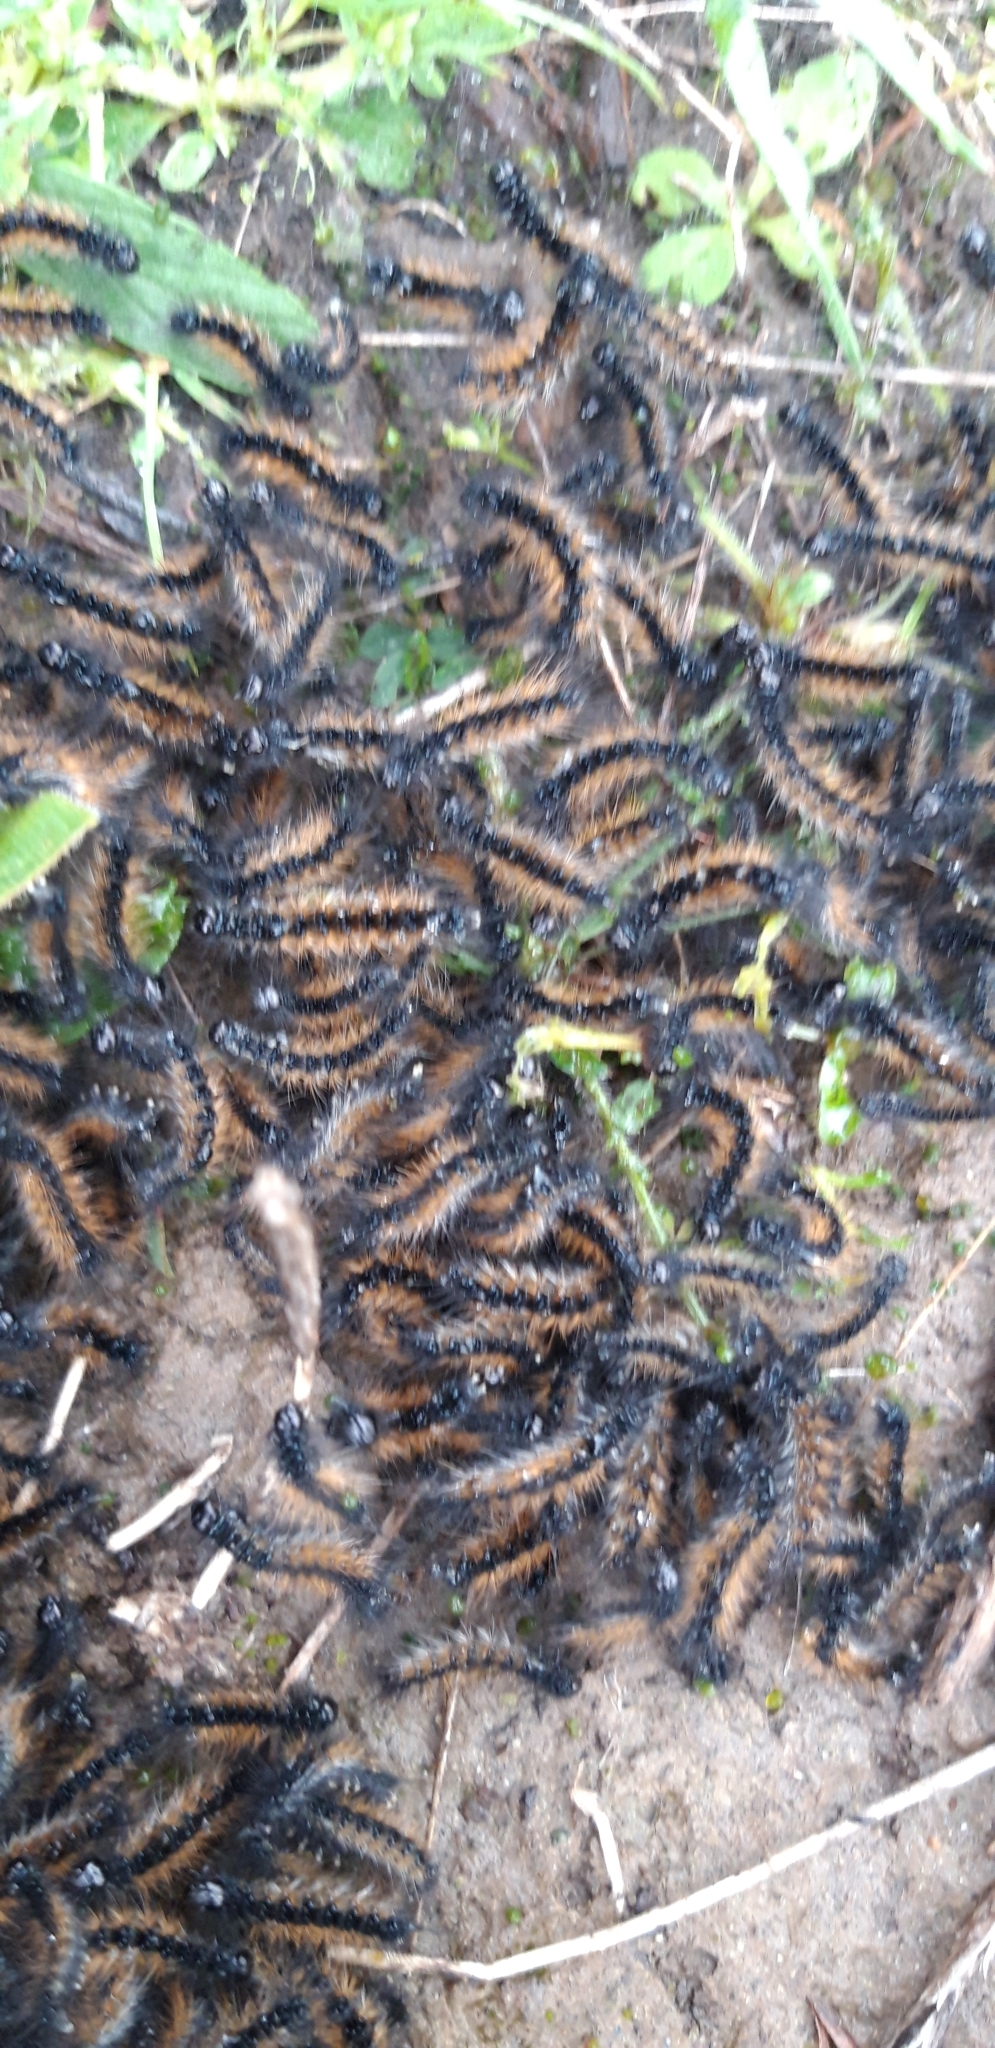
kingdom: Animalia
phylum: Arthropoda
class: Insecta
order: Lepidoptera
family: Erebidae
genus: Ocnogyna
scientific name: Ocnogyna loewii
